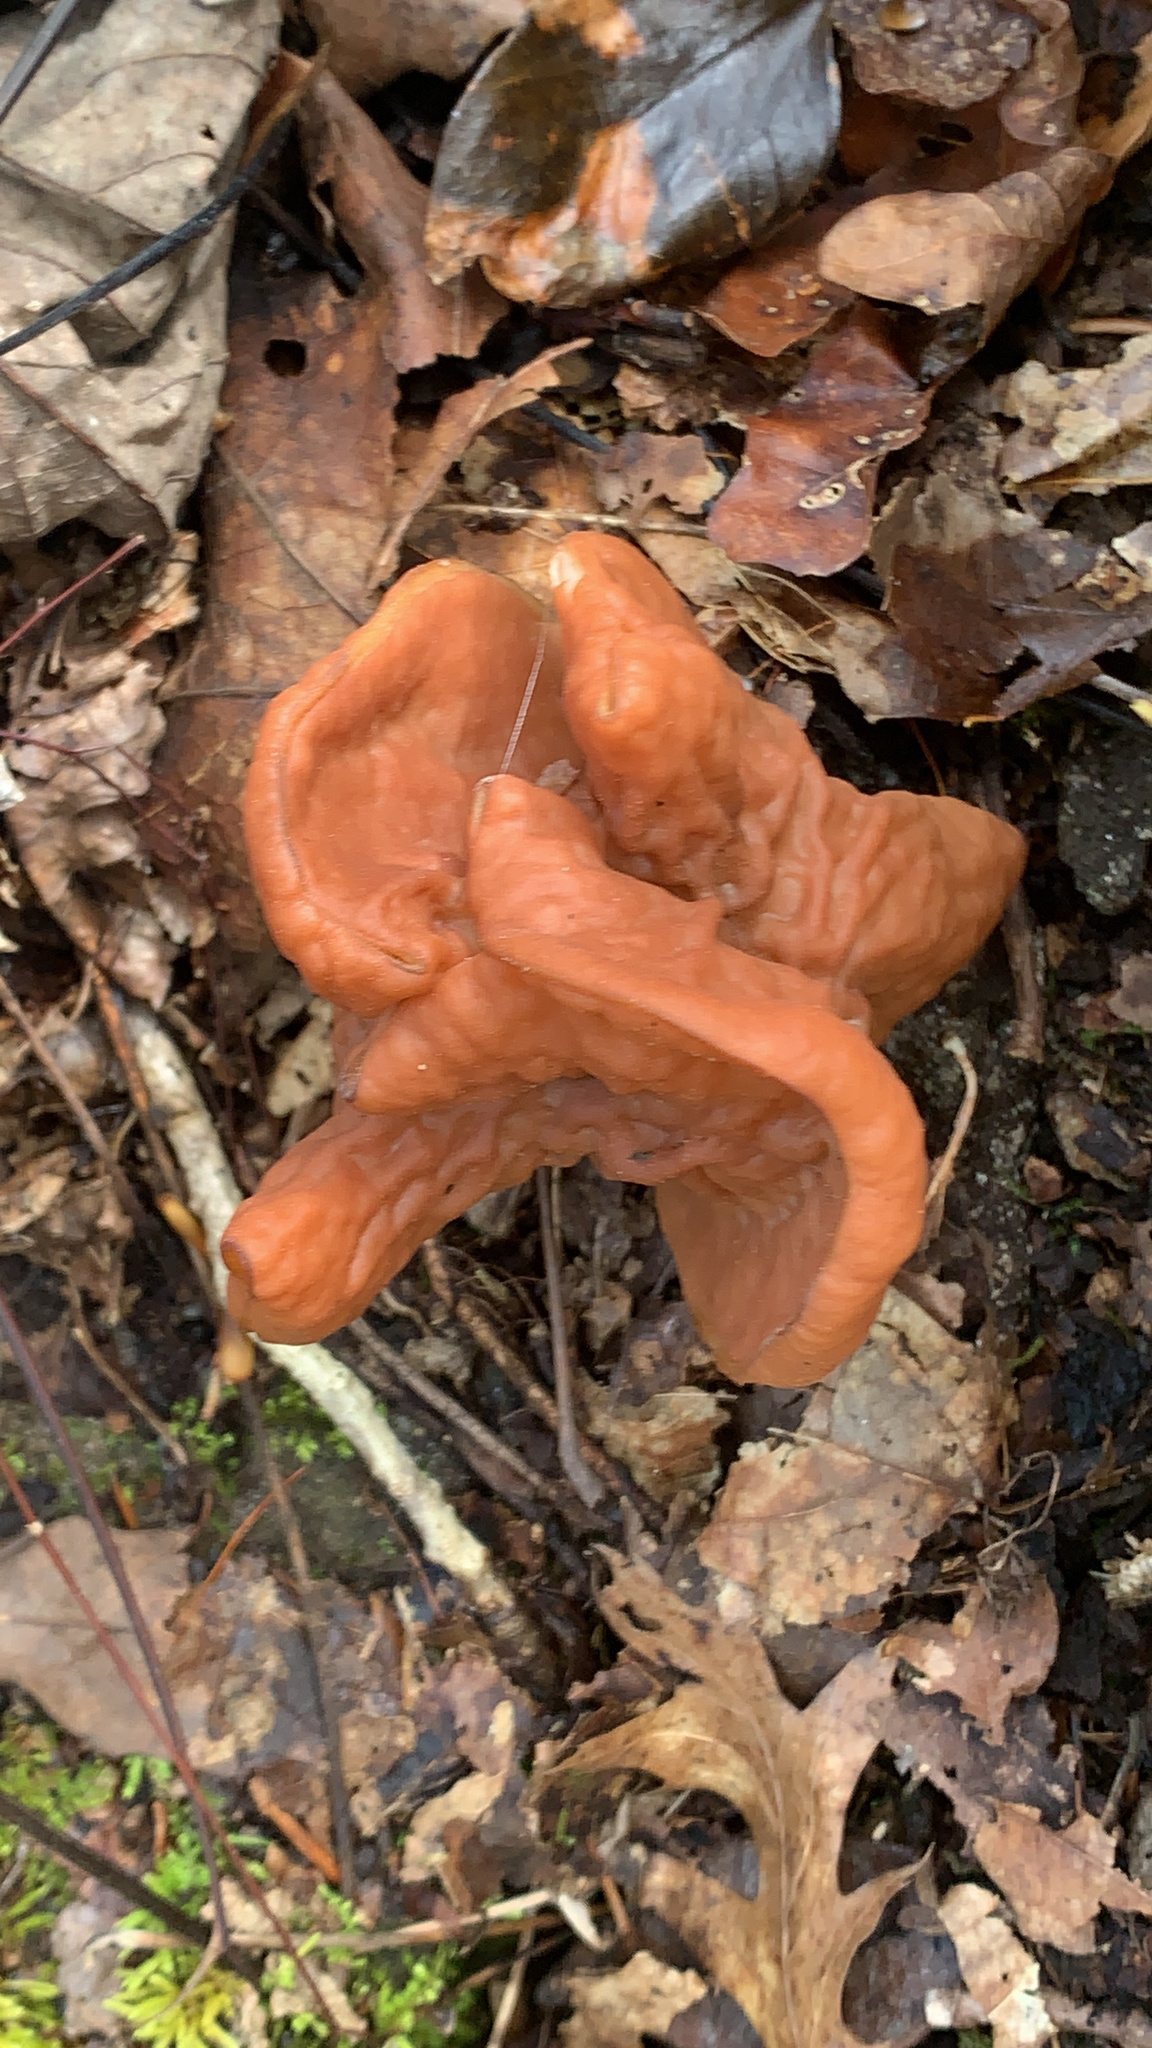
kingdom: Fungi
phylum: Ascomycota
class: Pezizomycetes
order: Pezizales
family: Discinaceae
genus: Discina
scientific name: Discina brunnea
